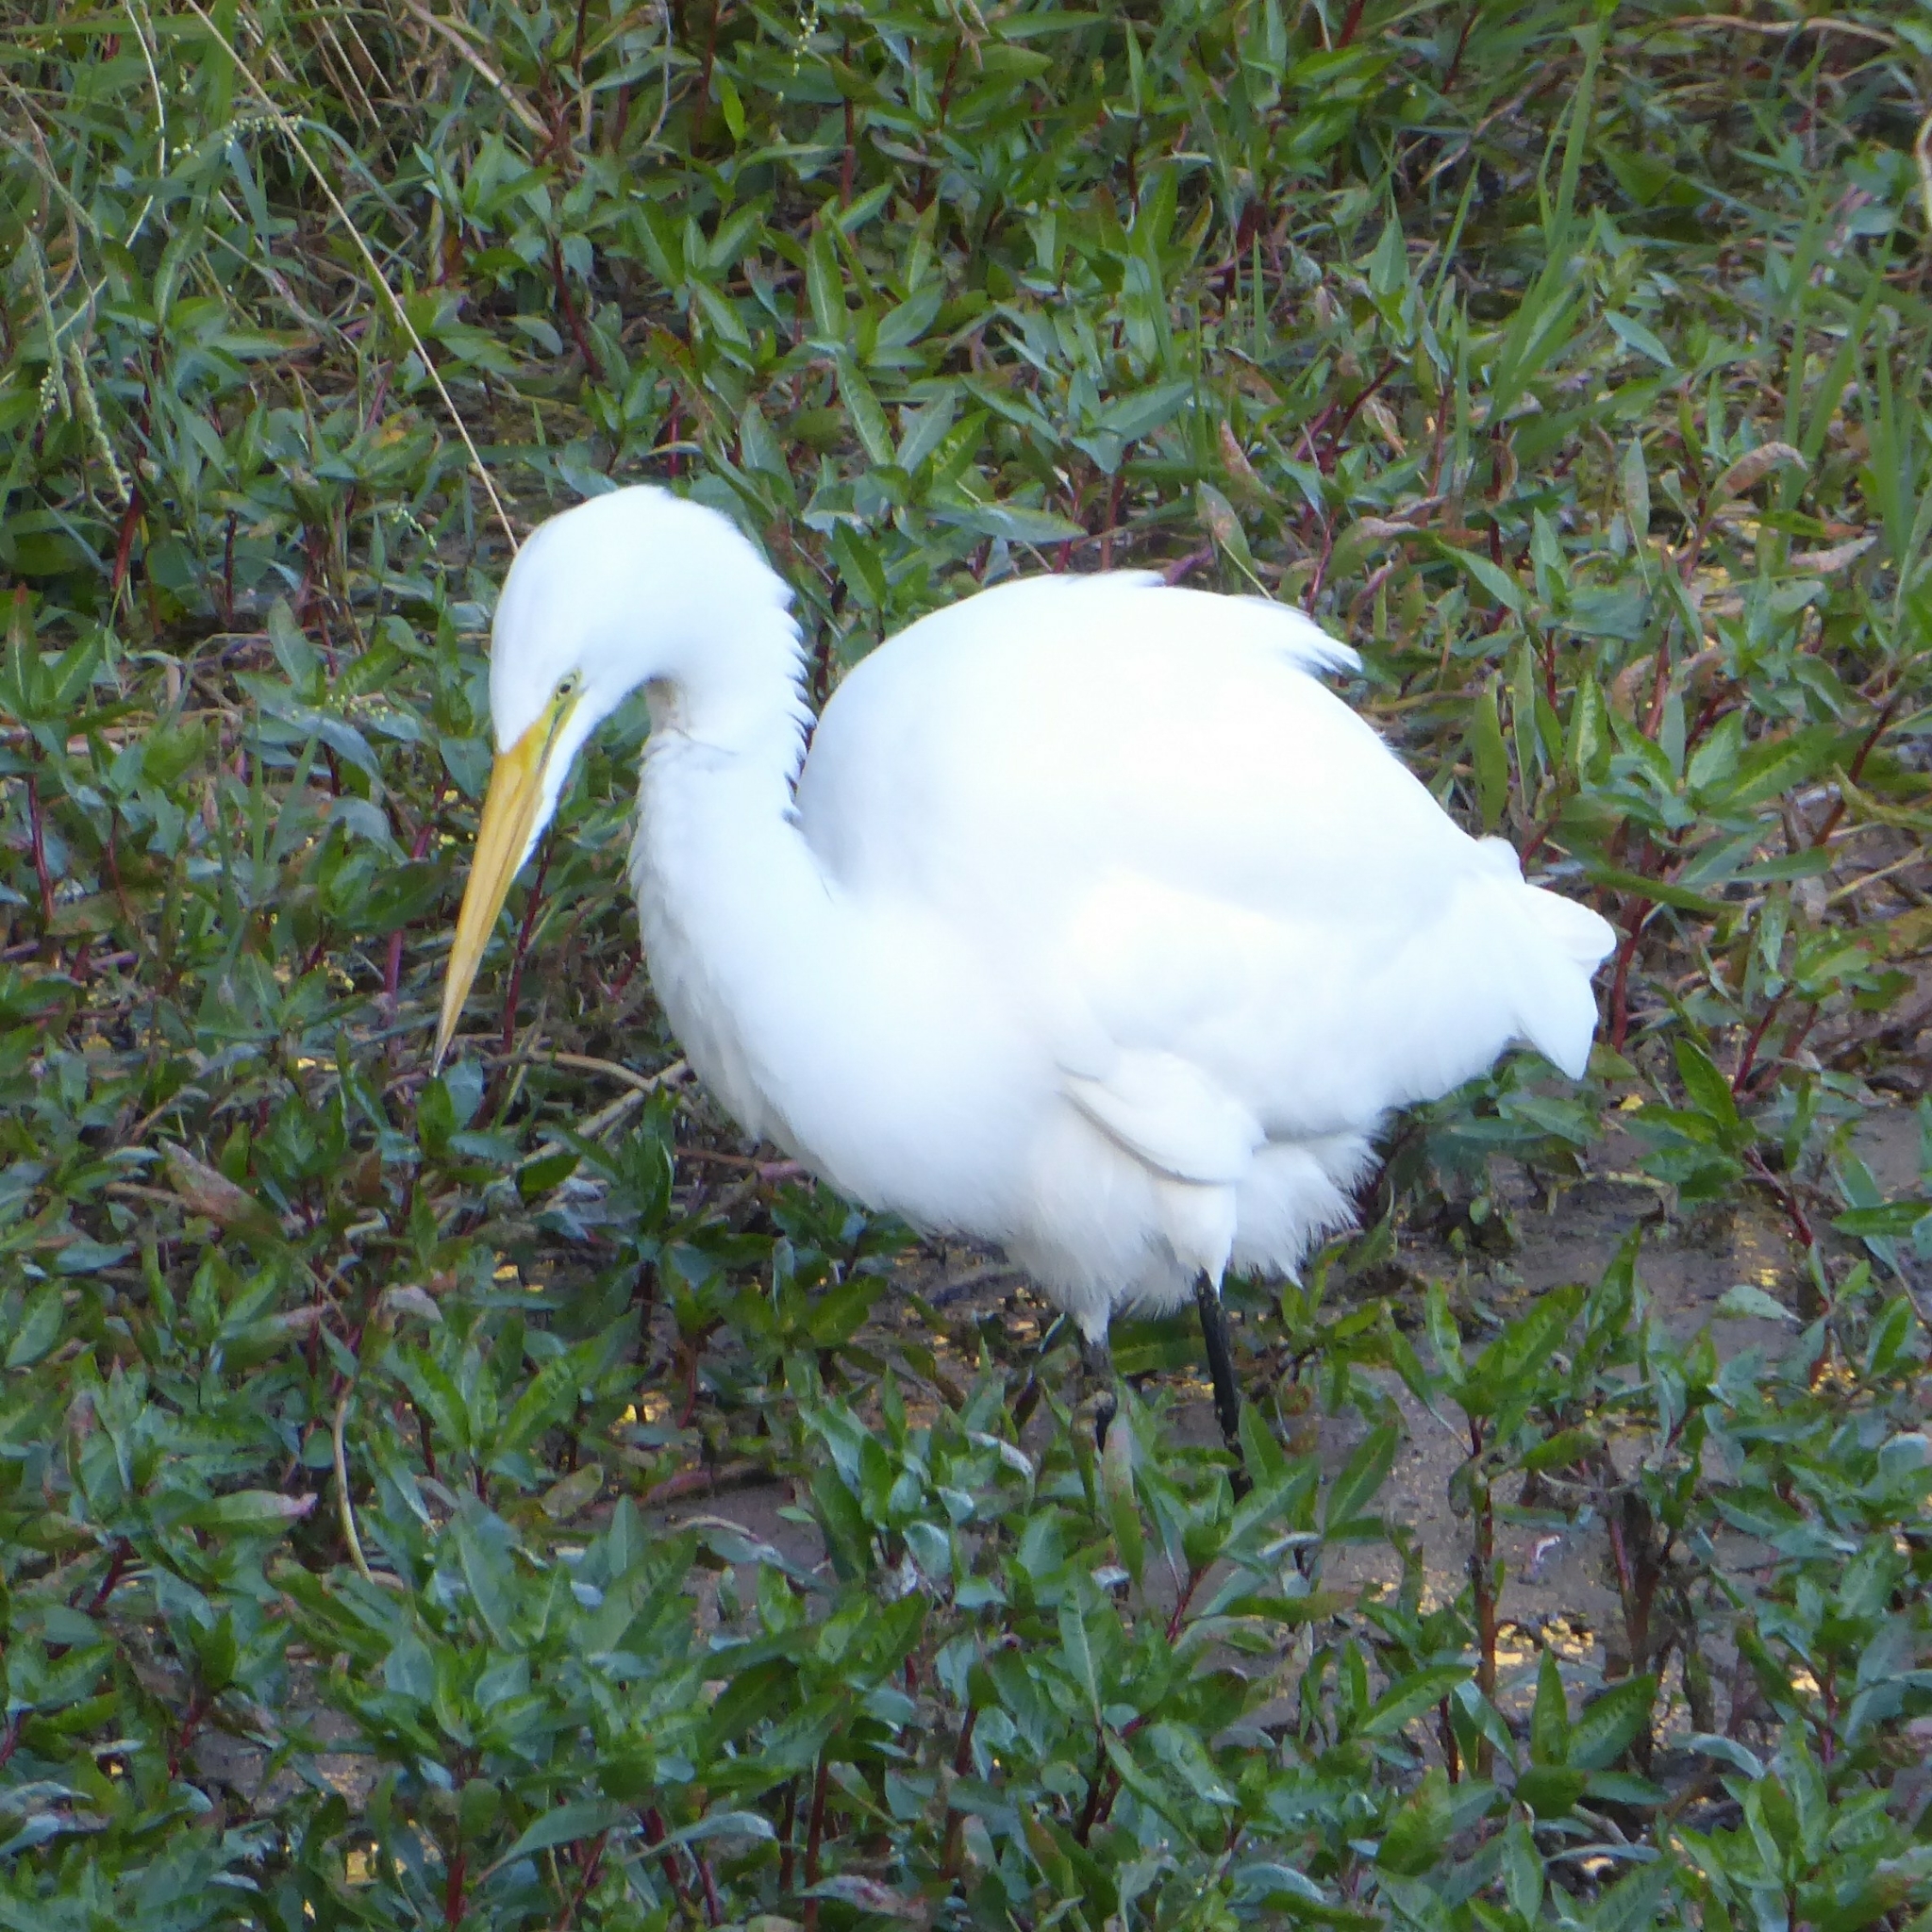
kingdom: Animalia
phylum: Chordata
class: Aves
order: Pelecaniformes
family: Ardeidae
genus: Ardea
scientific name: Ardea alba
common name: Great egret
